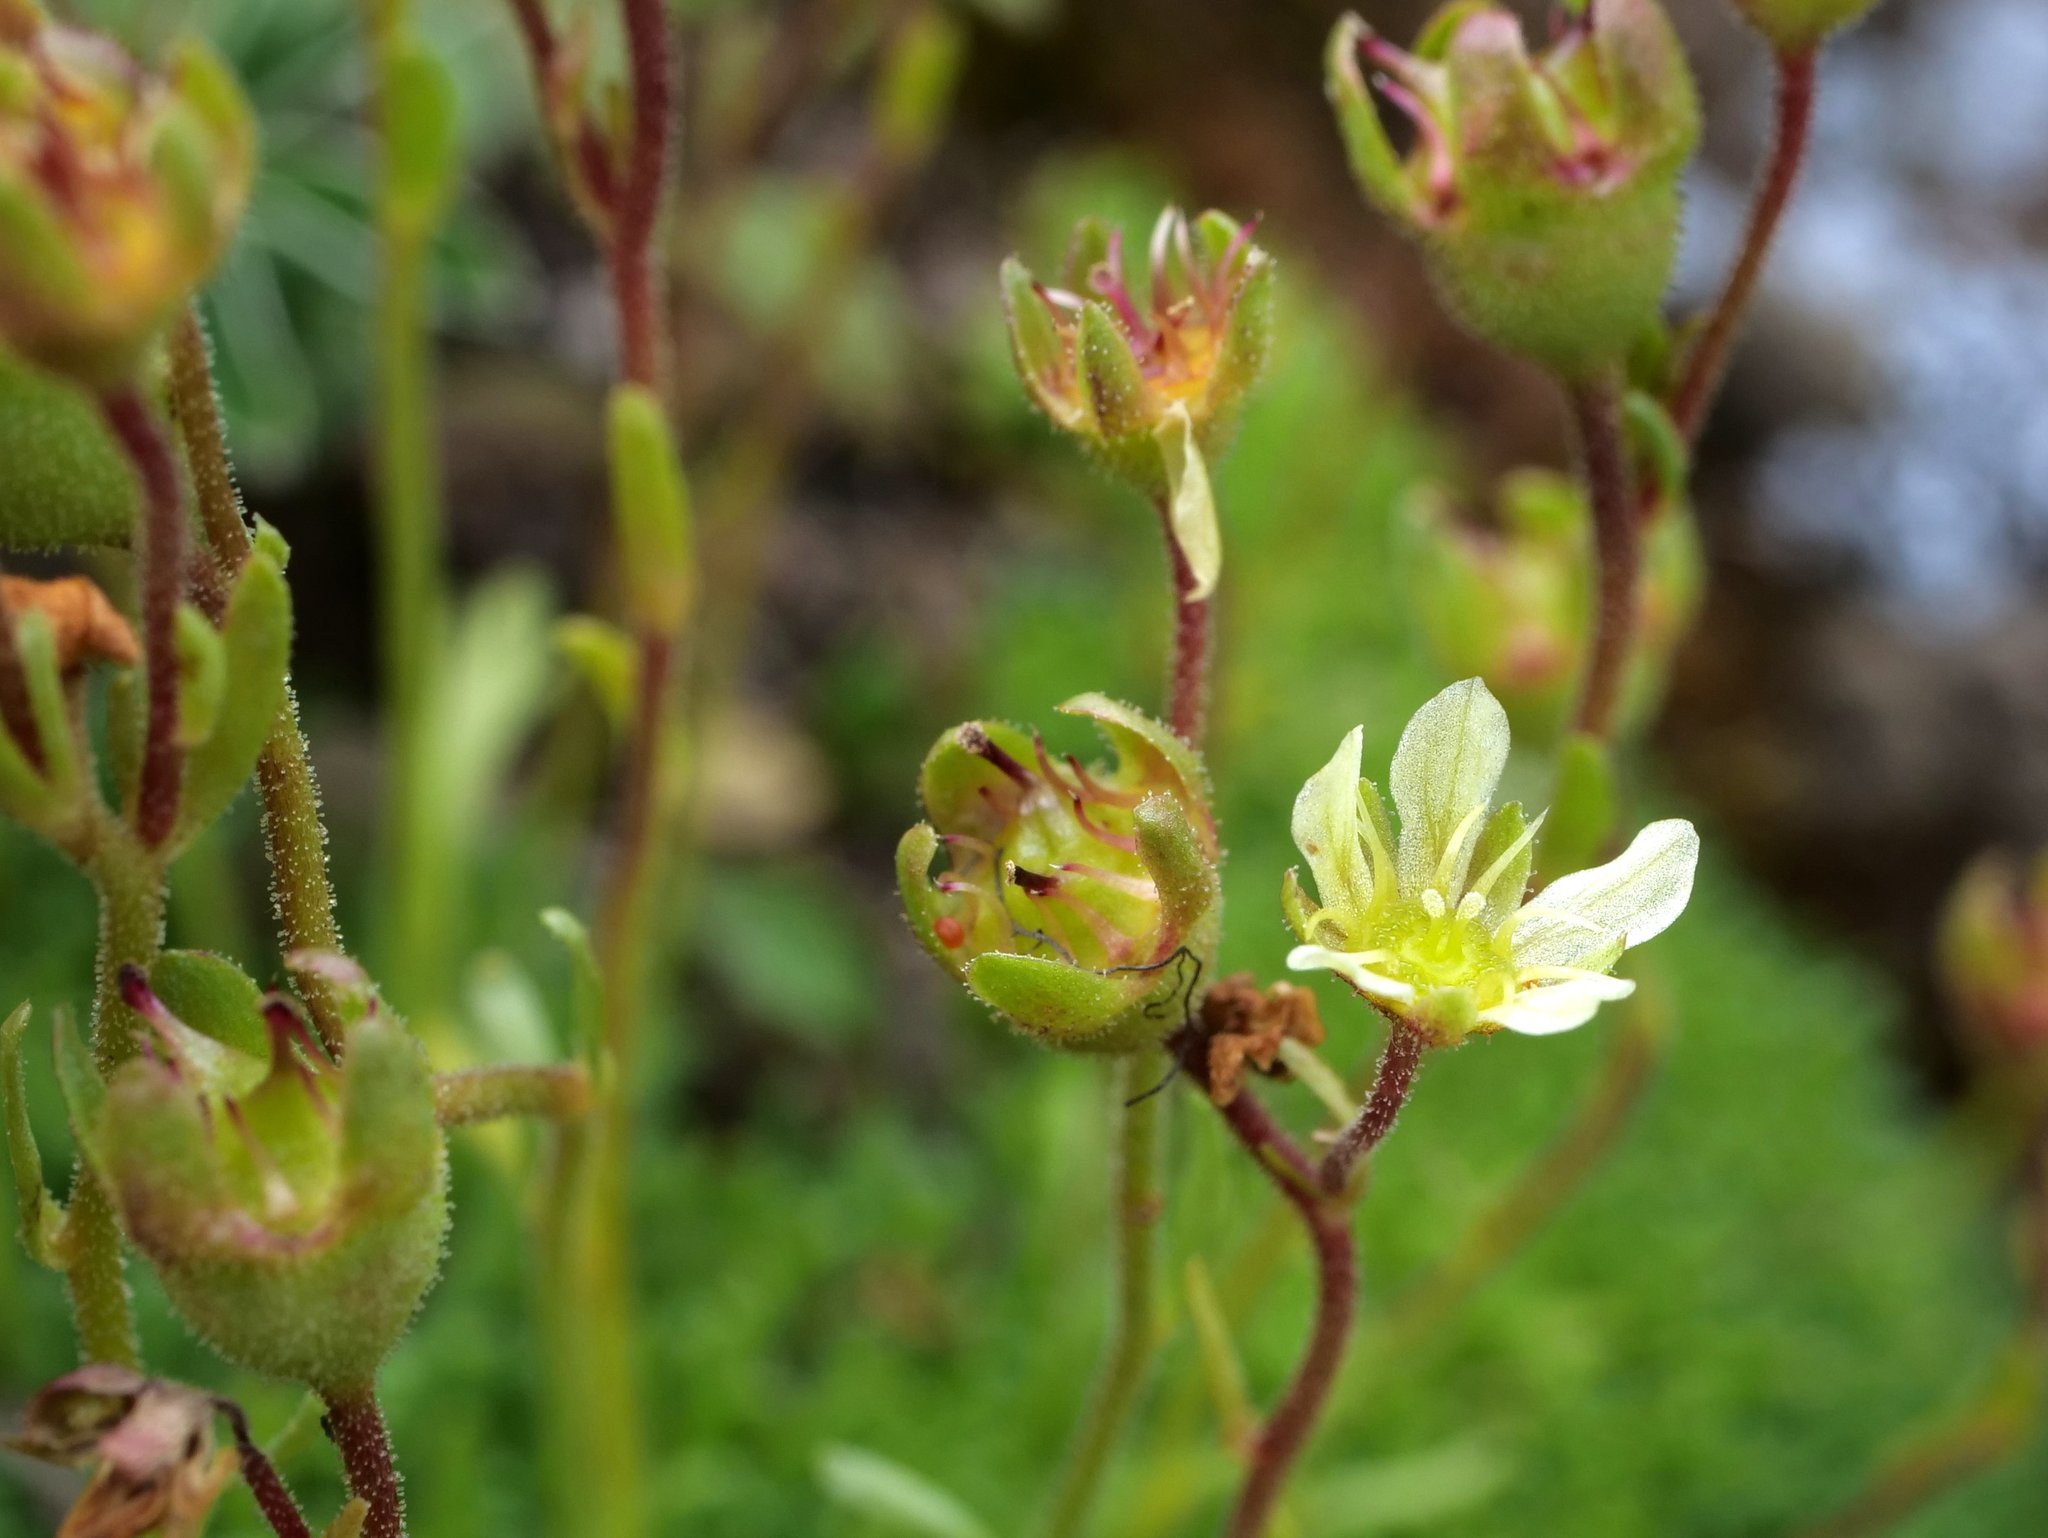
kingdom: Plantae
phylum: Tracheophyta
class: Magnoliopsida
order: Saxifragales
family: Saxifragaceae
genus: Saxifraga
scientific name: Saxifraga moschata
